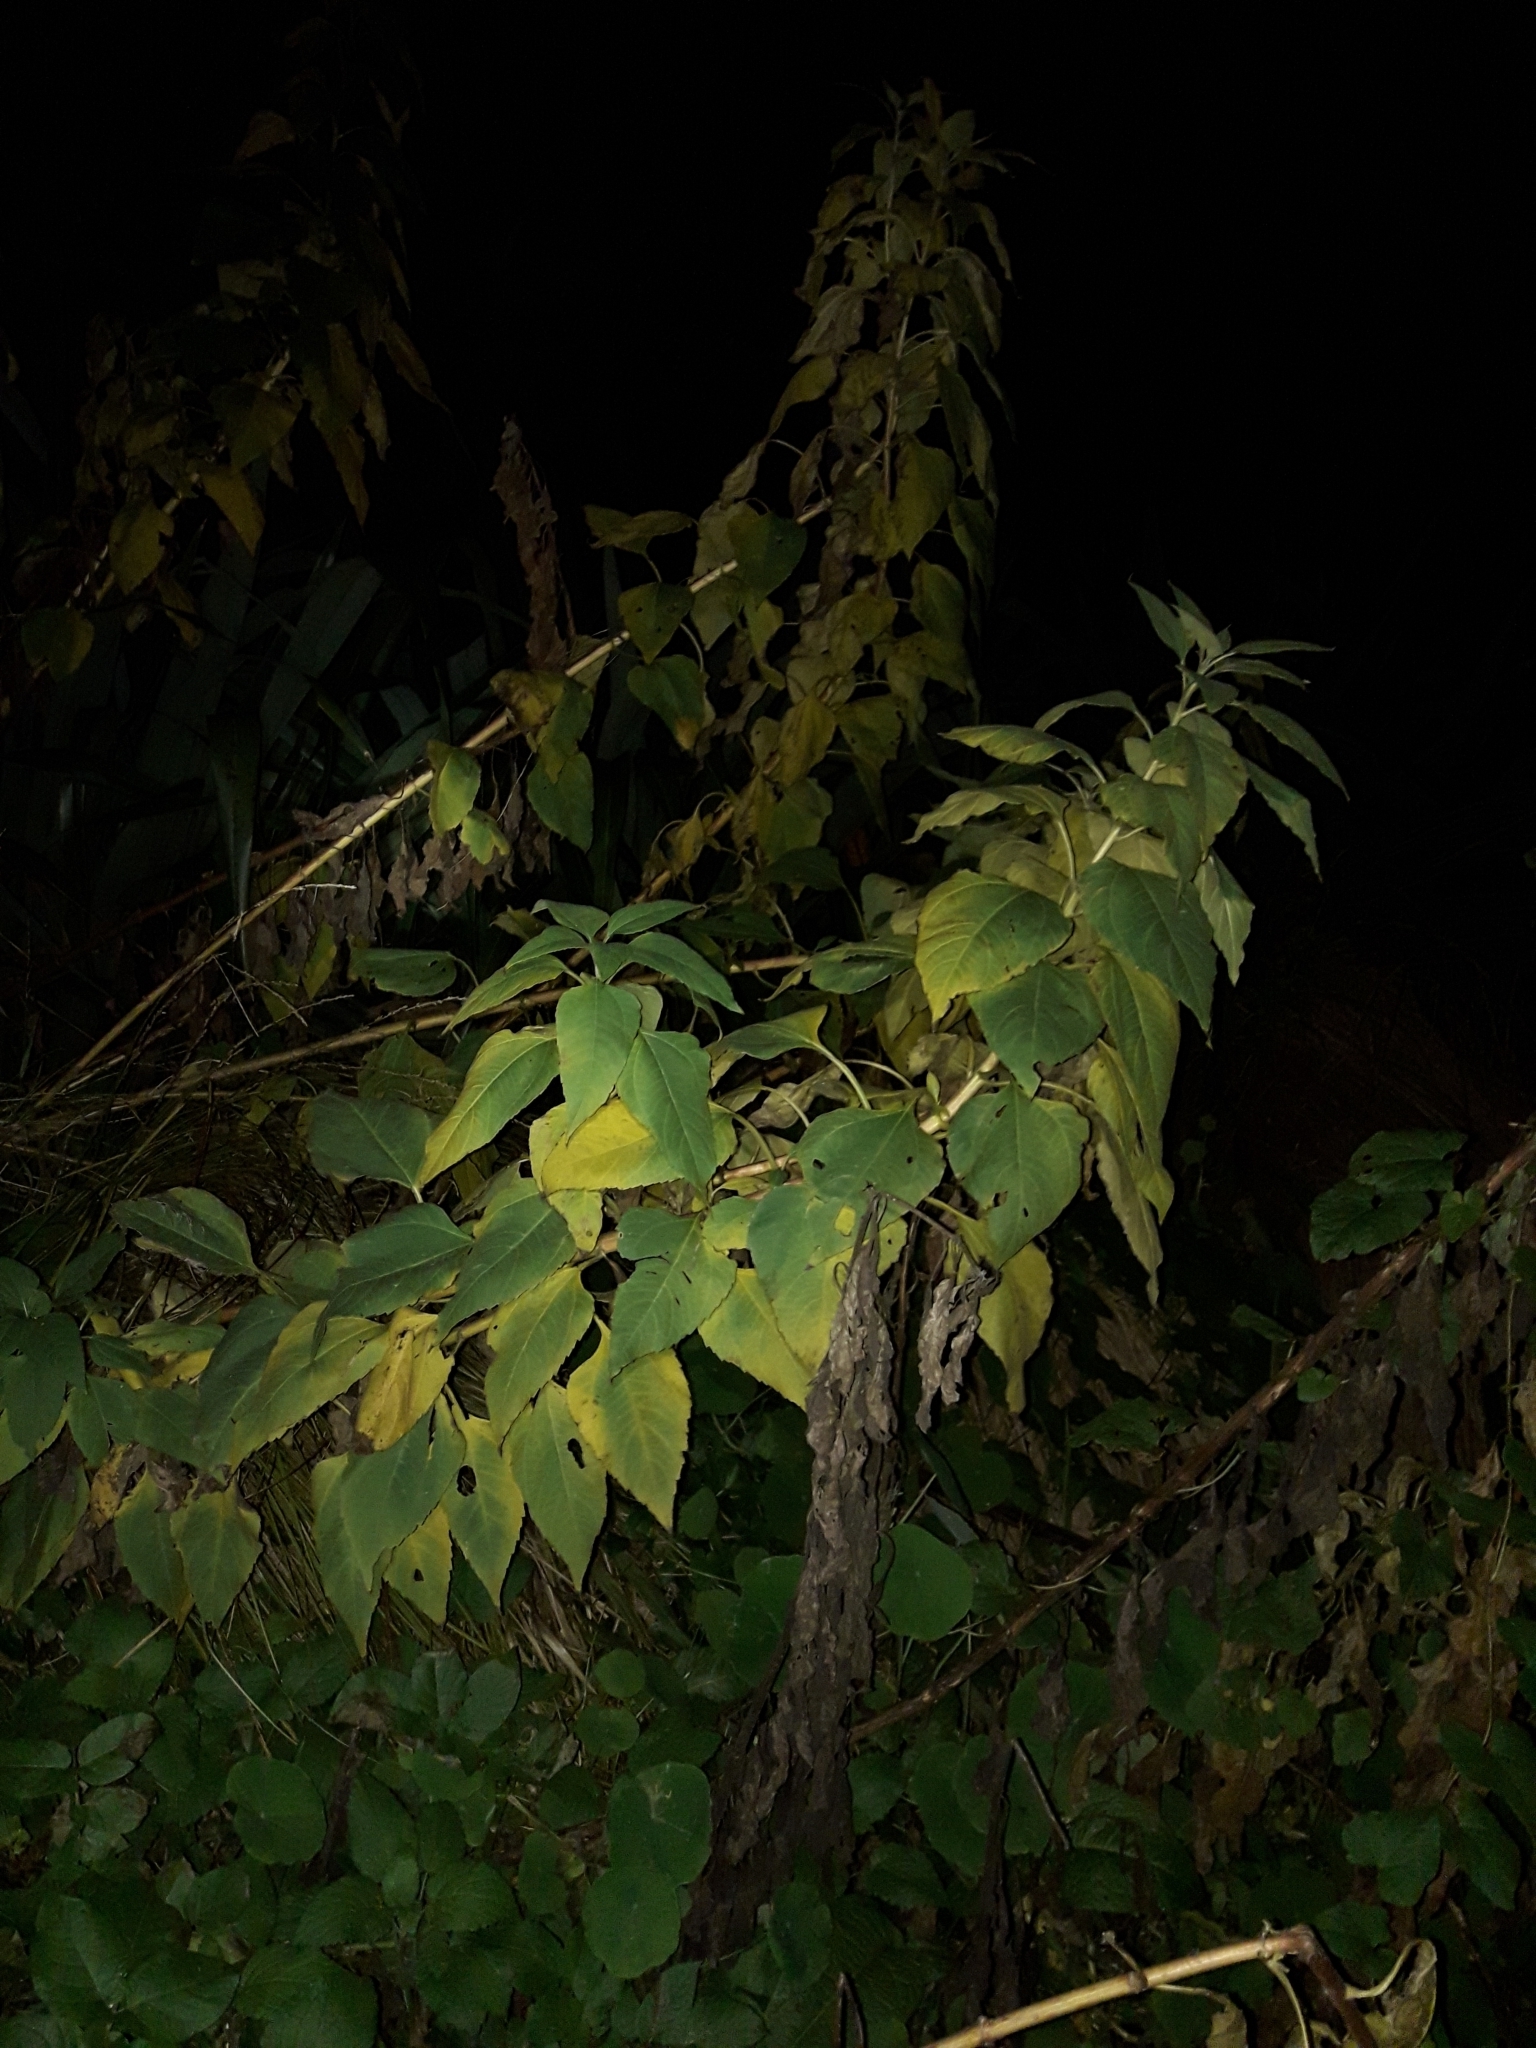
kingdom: Plantae
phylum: Tracheophyta
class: Magnoliopsida
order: Asterales
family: Asteraceae
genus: Helianthus
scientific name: Helianthus tuberosus
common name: Jerusalem artichoke
